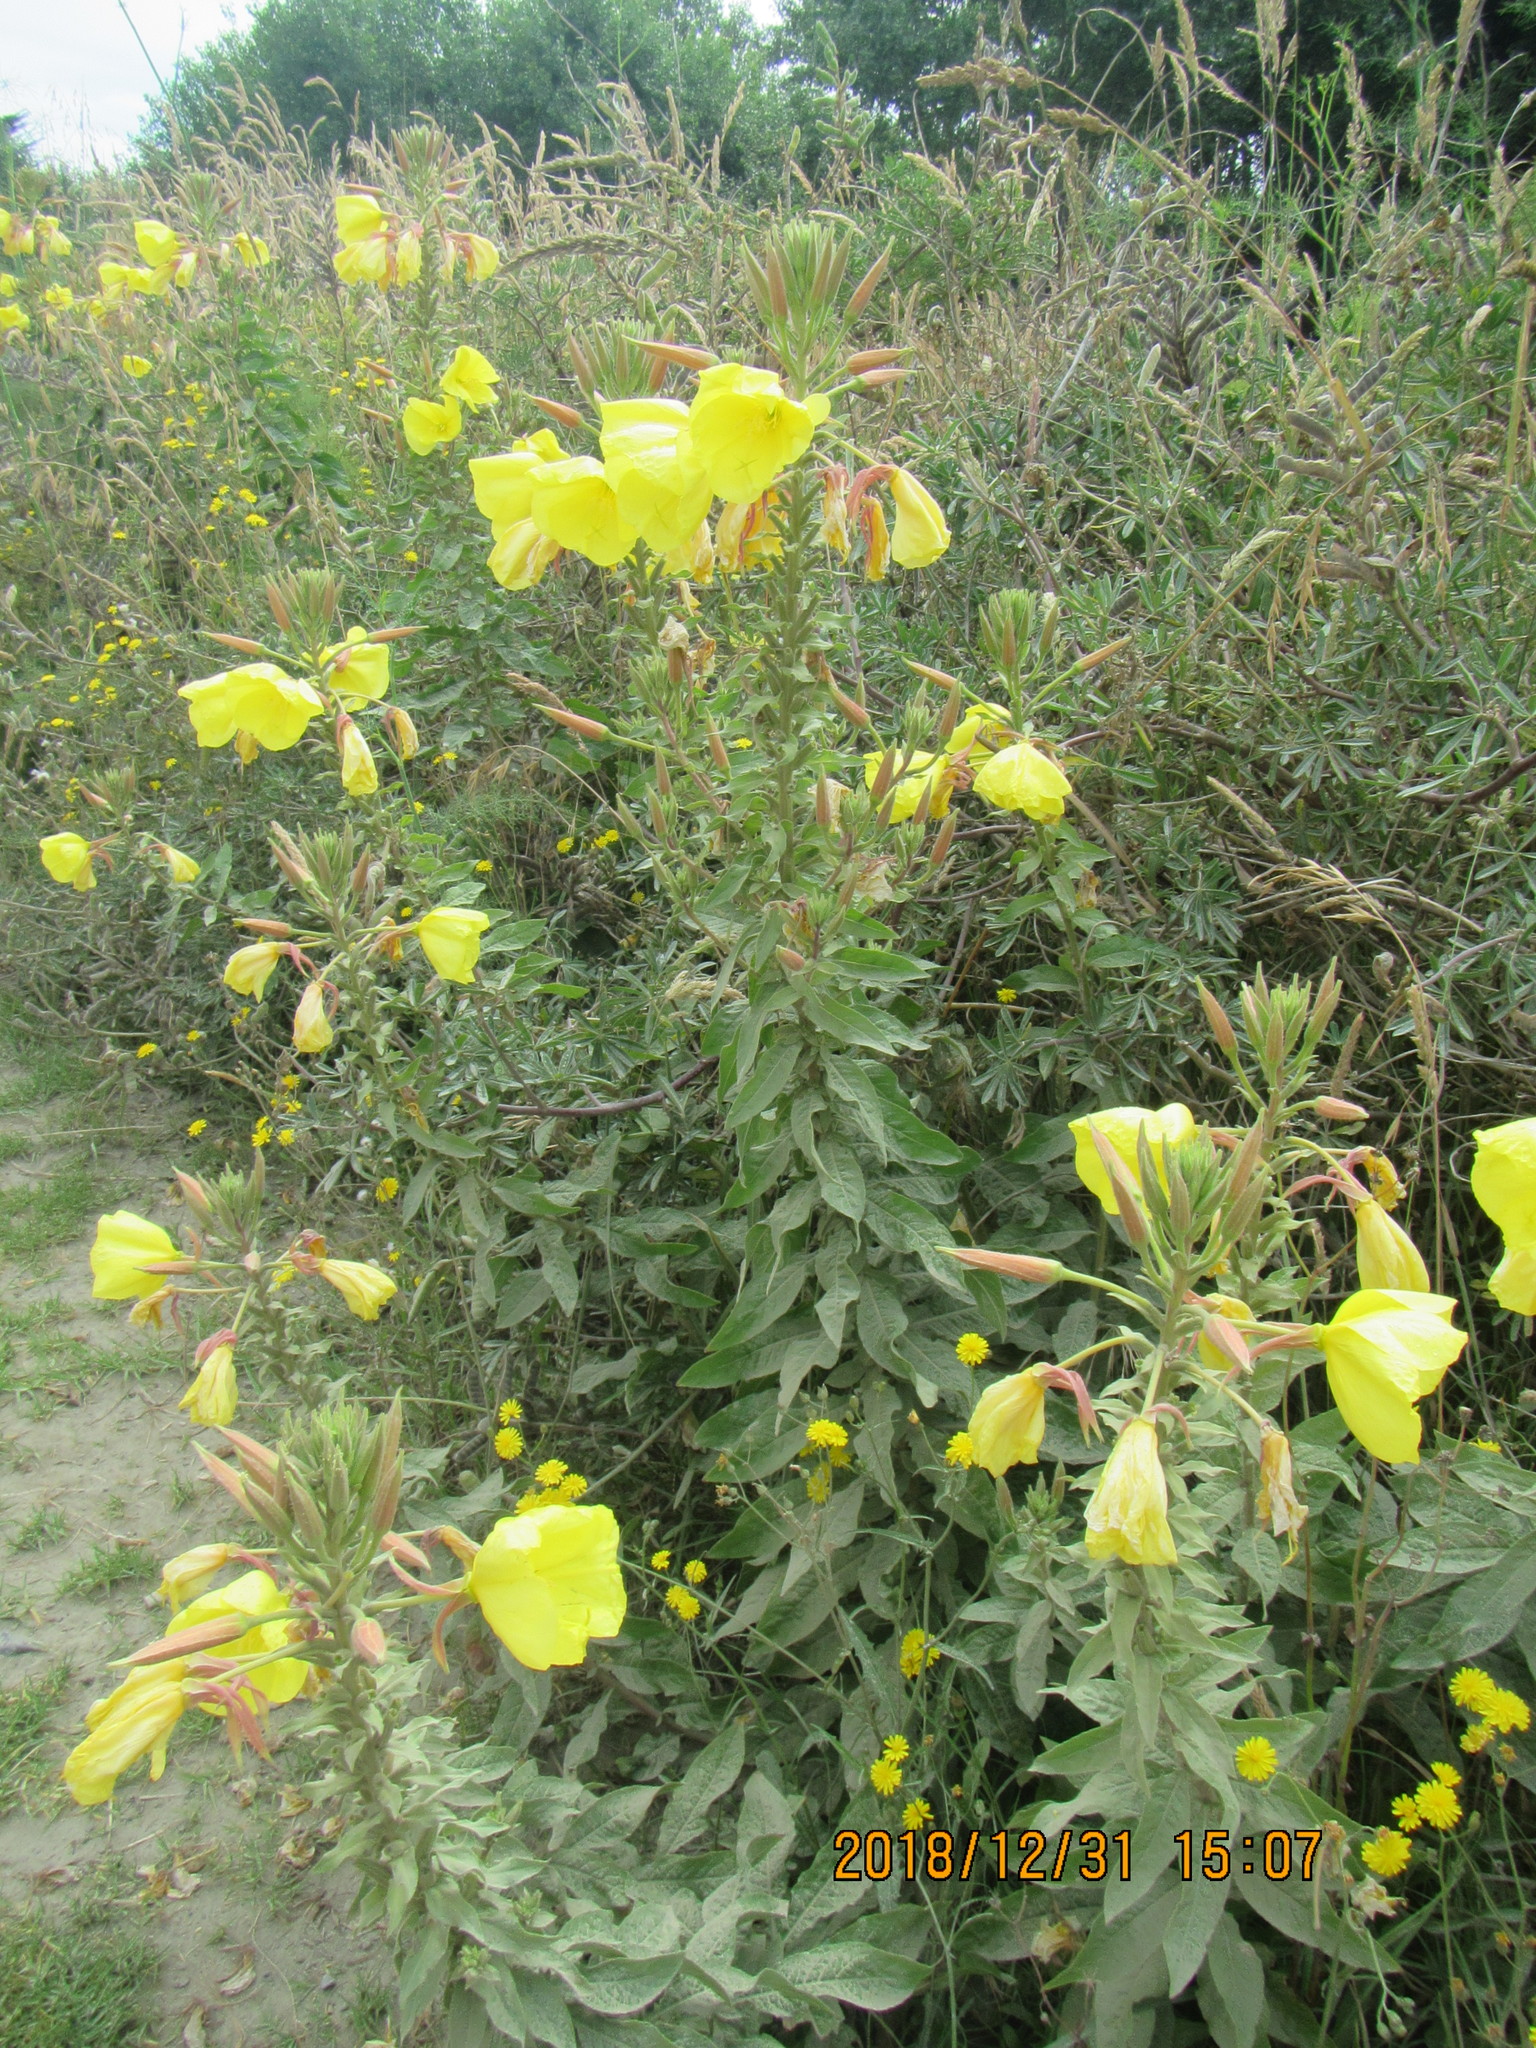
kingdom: Plantae
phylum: Tracheophyta
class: Magnoliopsida
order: Myrtales
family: Onagraceae
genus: Oenothera
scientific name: Oenothera glazioviana
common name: Large-flowered evening-primrose
